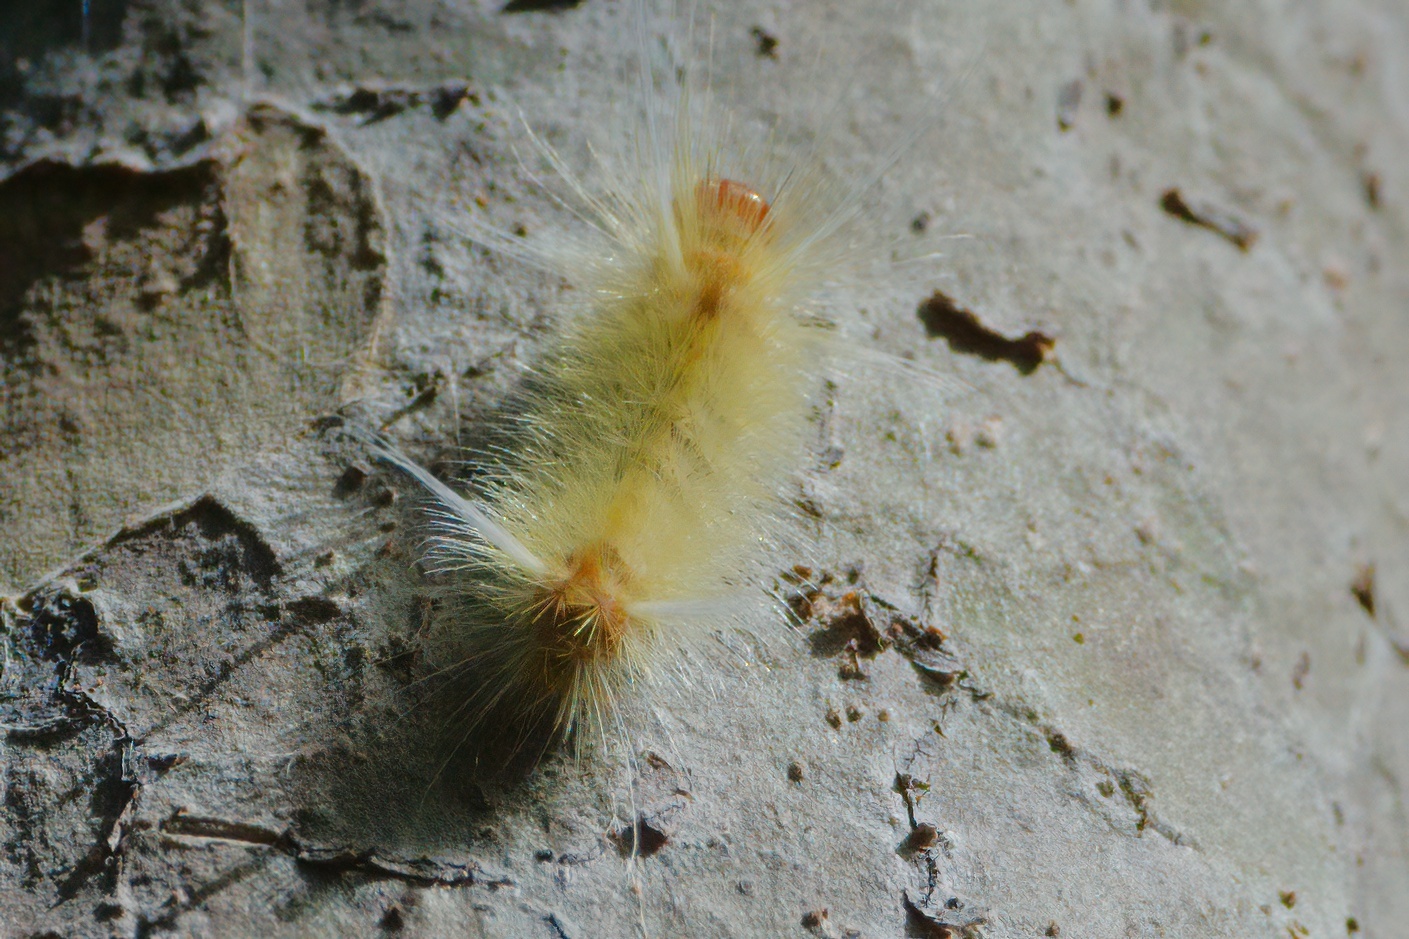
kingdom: Animalia
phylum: Arthropoda
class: Insecta
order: Lepidoptera
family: Erebidae
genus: Halysidota
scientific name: Halysidota cinctipes
